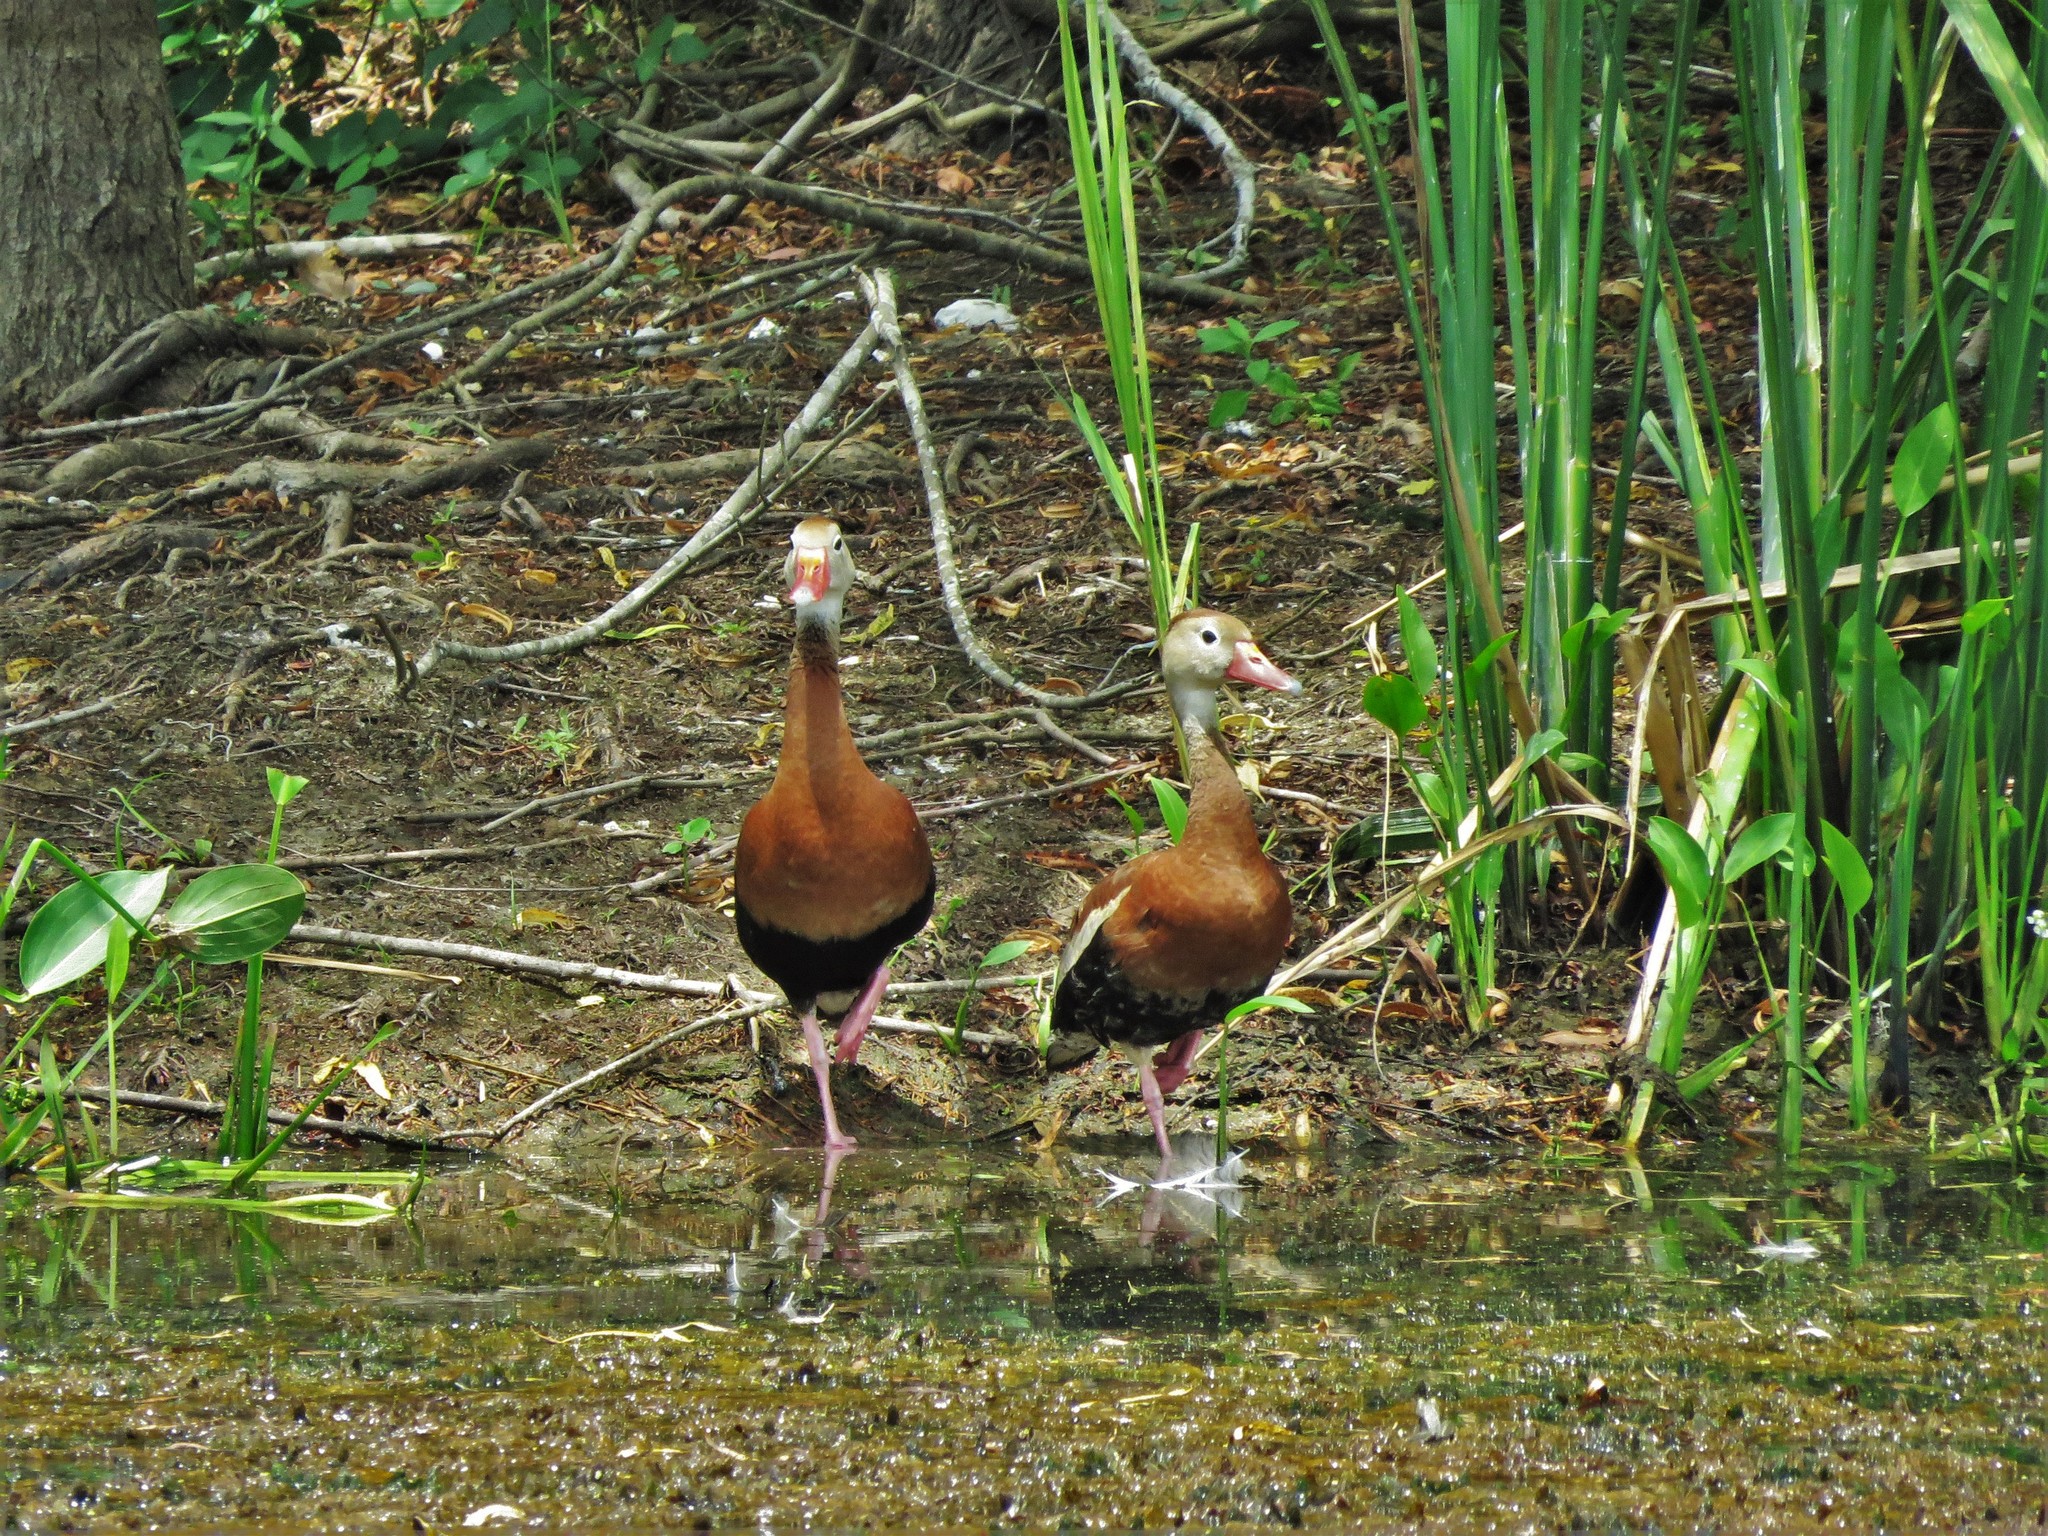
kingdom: Animalia
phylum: Chordata
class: Aves
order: Anseriformes
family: Anatidae
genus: Dendrocygna
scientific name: Dendrocygna autumnalis
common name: Black-bellied whistling duck
